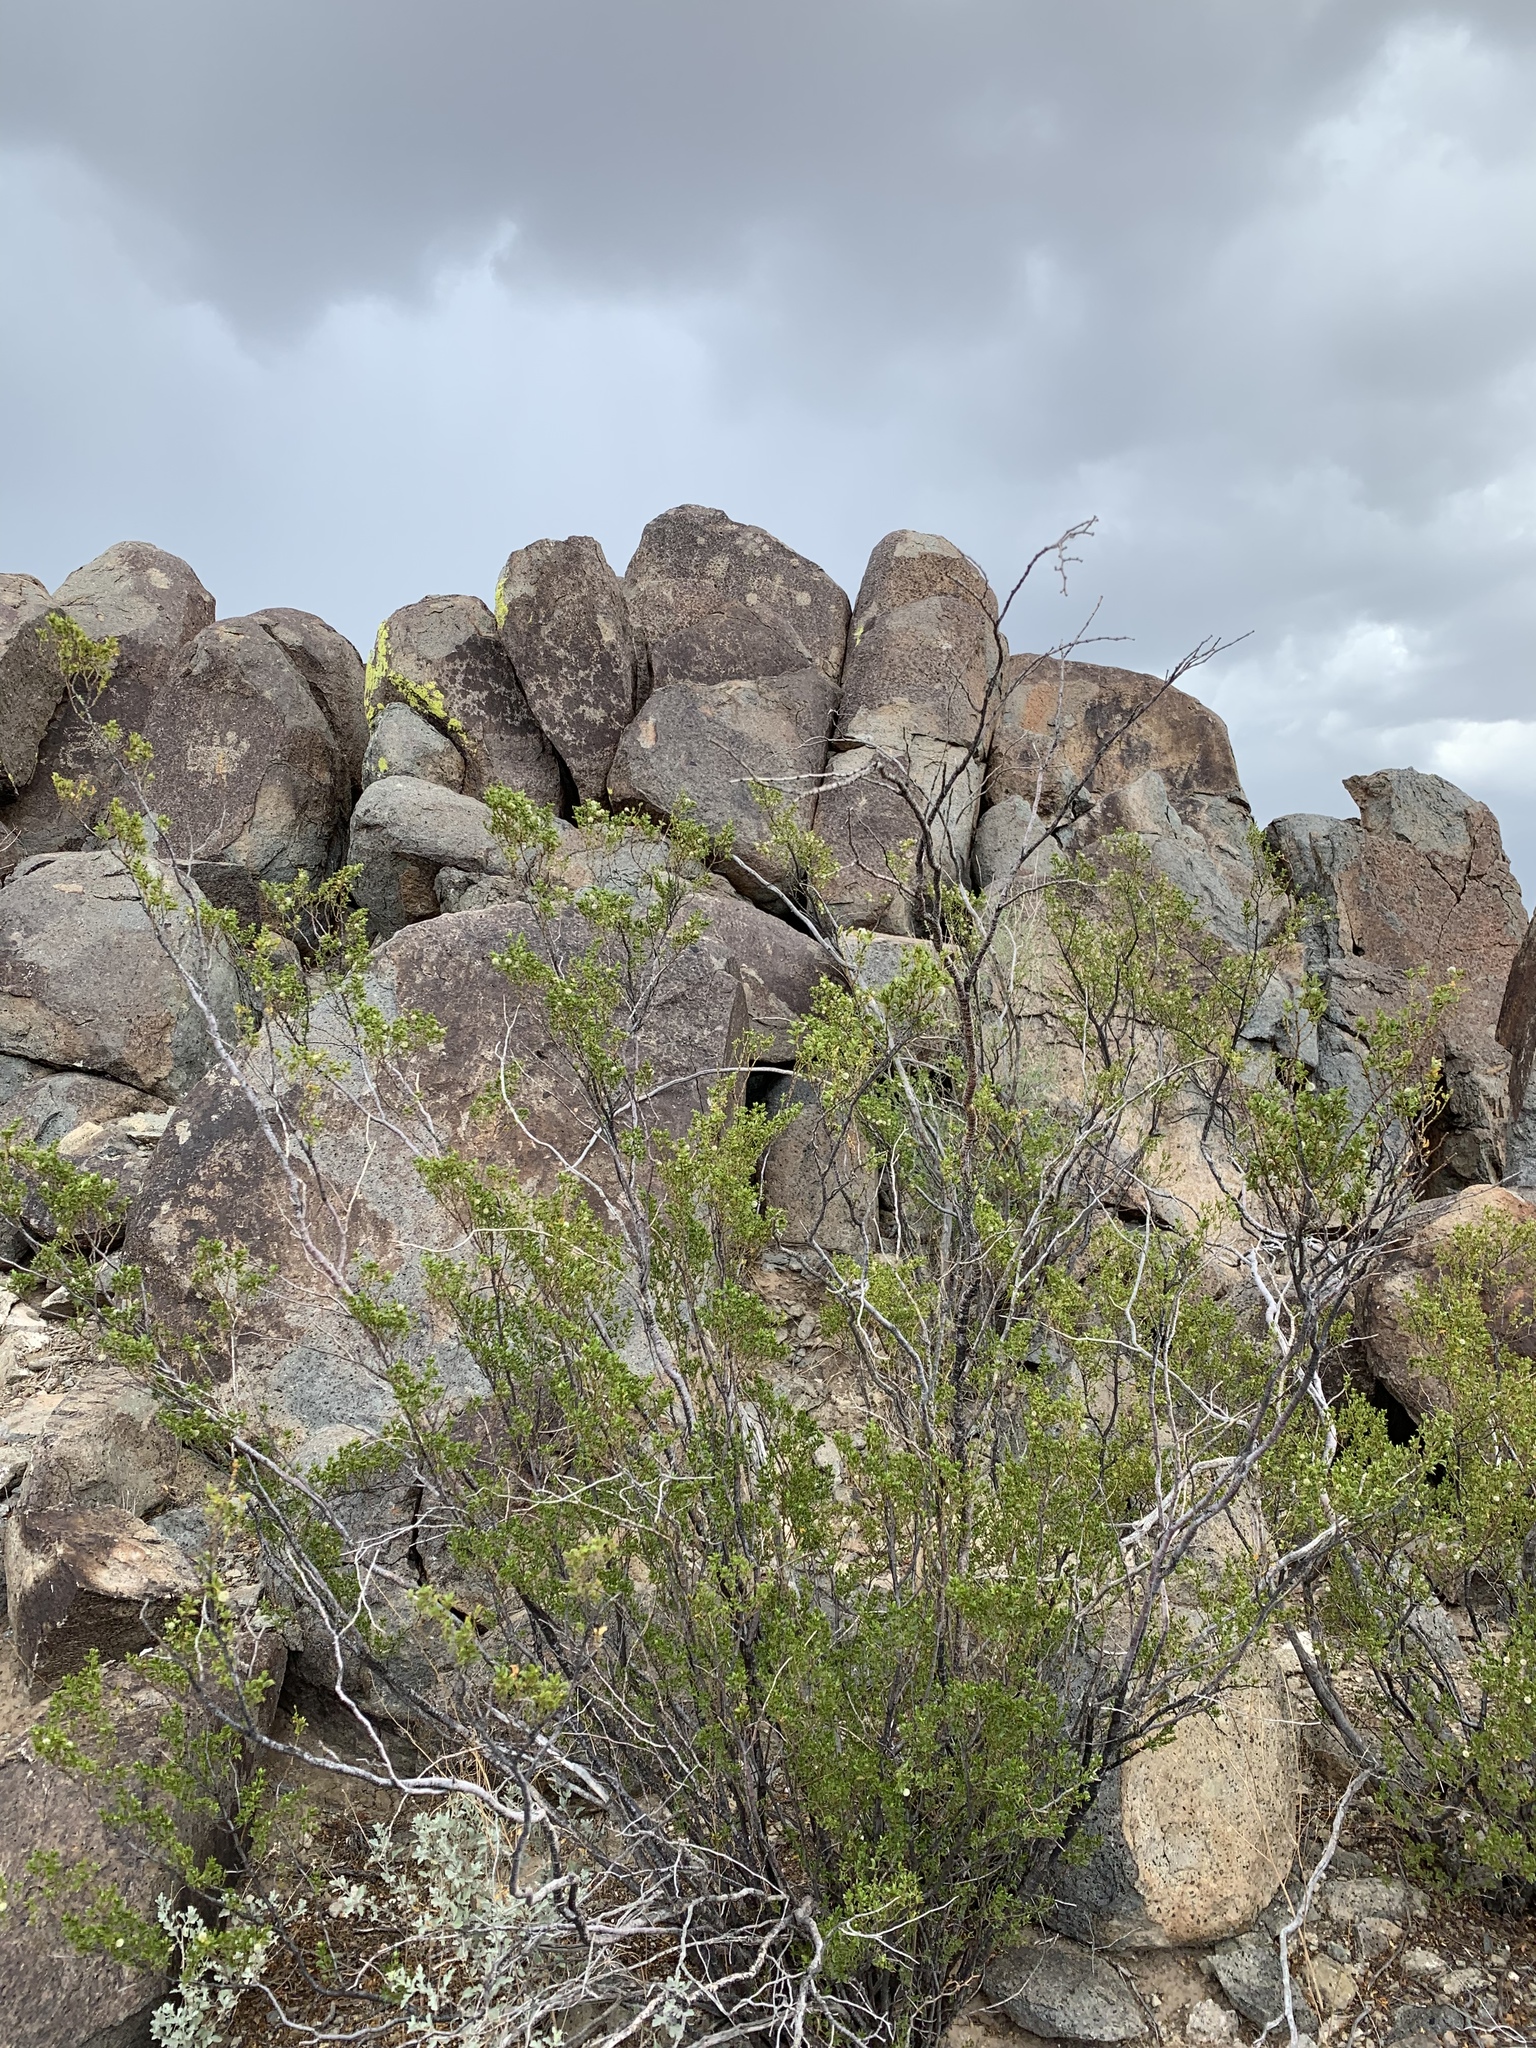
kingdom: Plantae
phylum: Tracheophyta
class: Magnoliopsida
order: Zygophyllales
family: Zygophyllaceae
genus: Larrea
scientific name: Larrea tridentata
